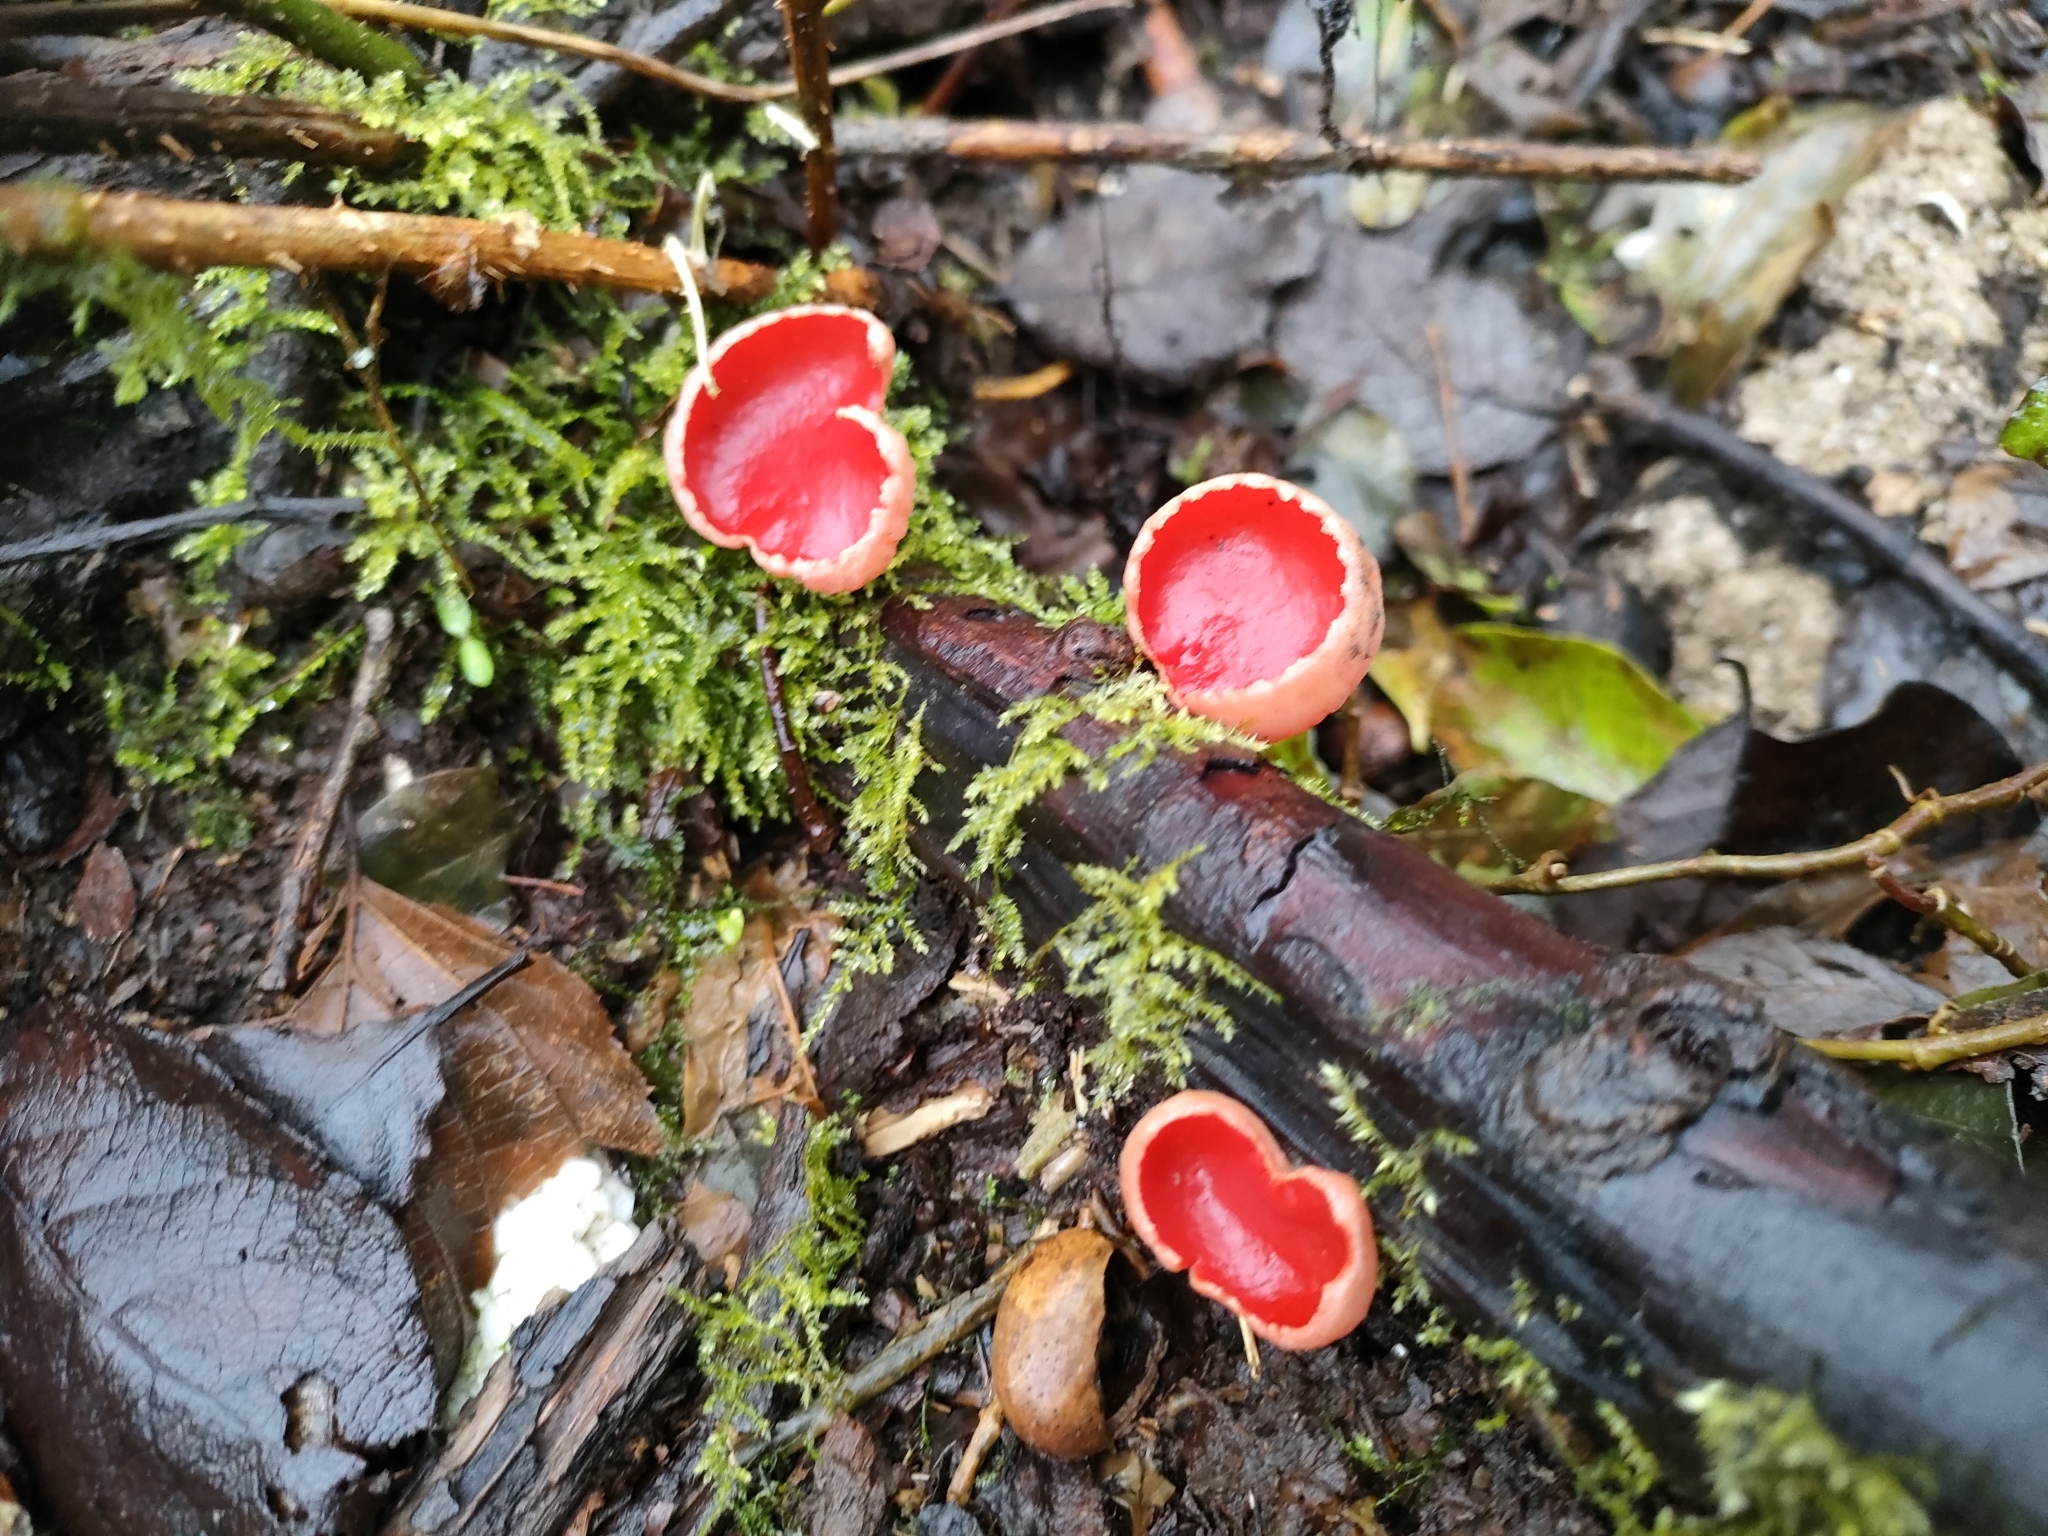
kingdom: Fungi
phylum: Ascomycota
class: Pezizomycetes
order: Pezizales
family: Sarcoscyphaceae
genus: Sarcoscypha
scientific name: Sarcoscypha
